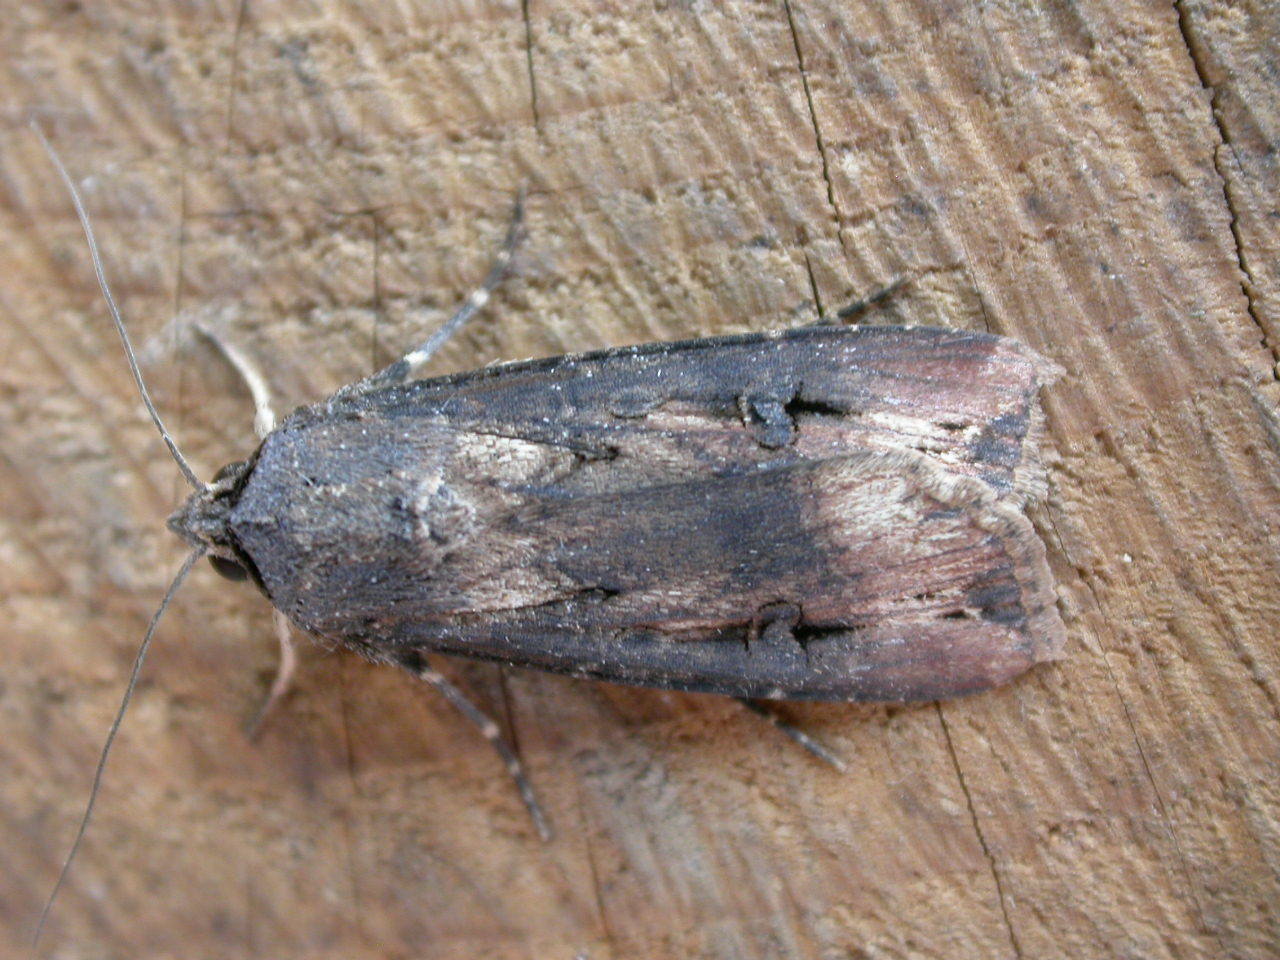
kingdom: Animalia
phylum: Arthropoda
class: Insecta
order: Lepidoptera
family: Noctuidae
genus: Agrotis
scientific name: Agrotis ipsilon
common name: Dark sword-grass
